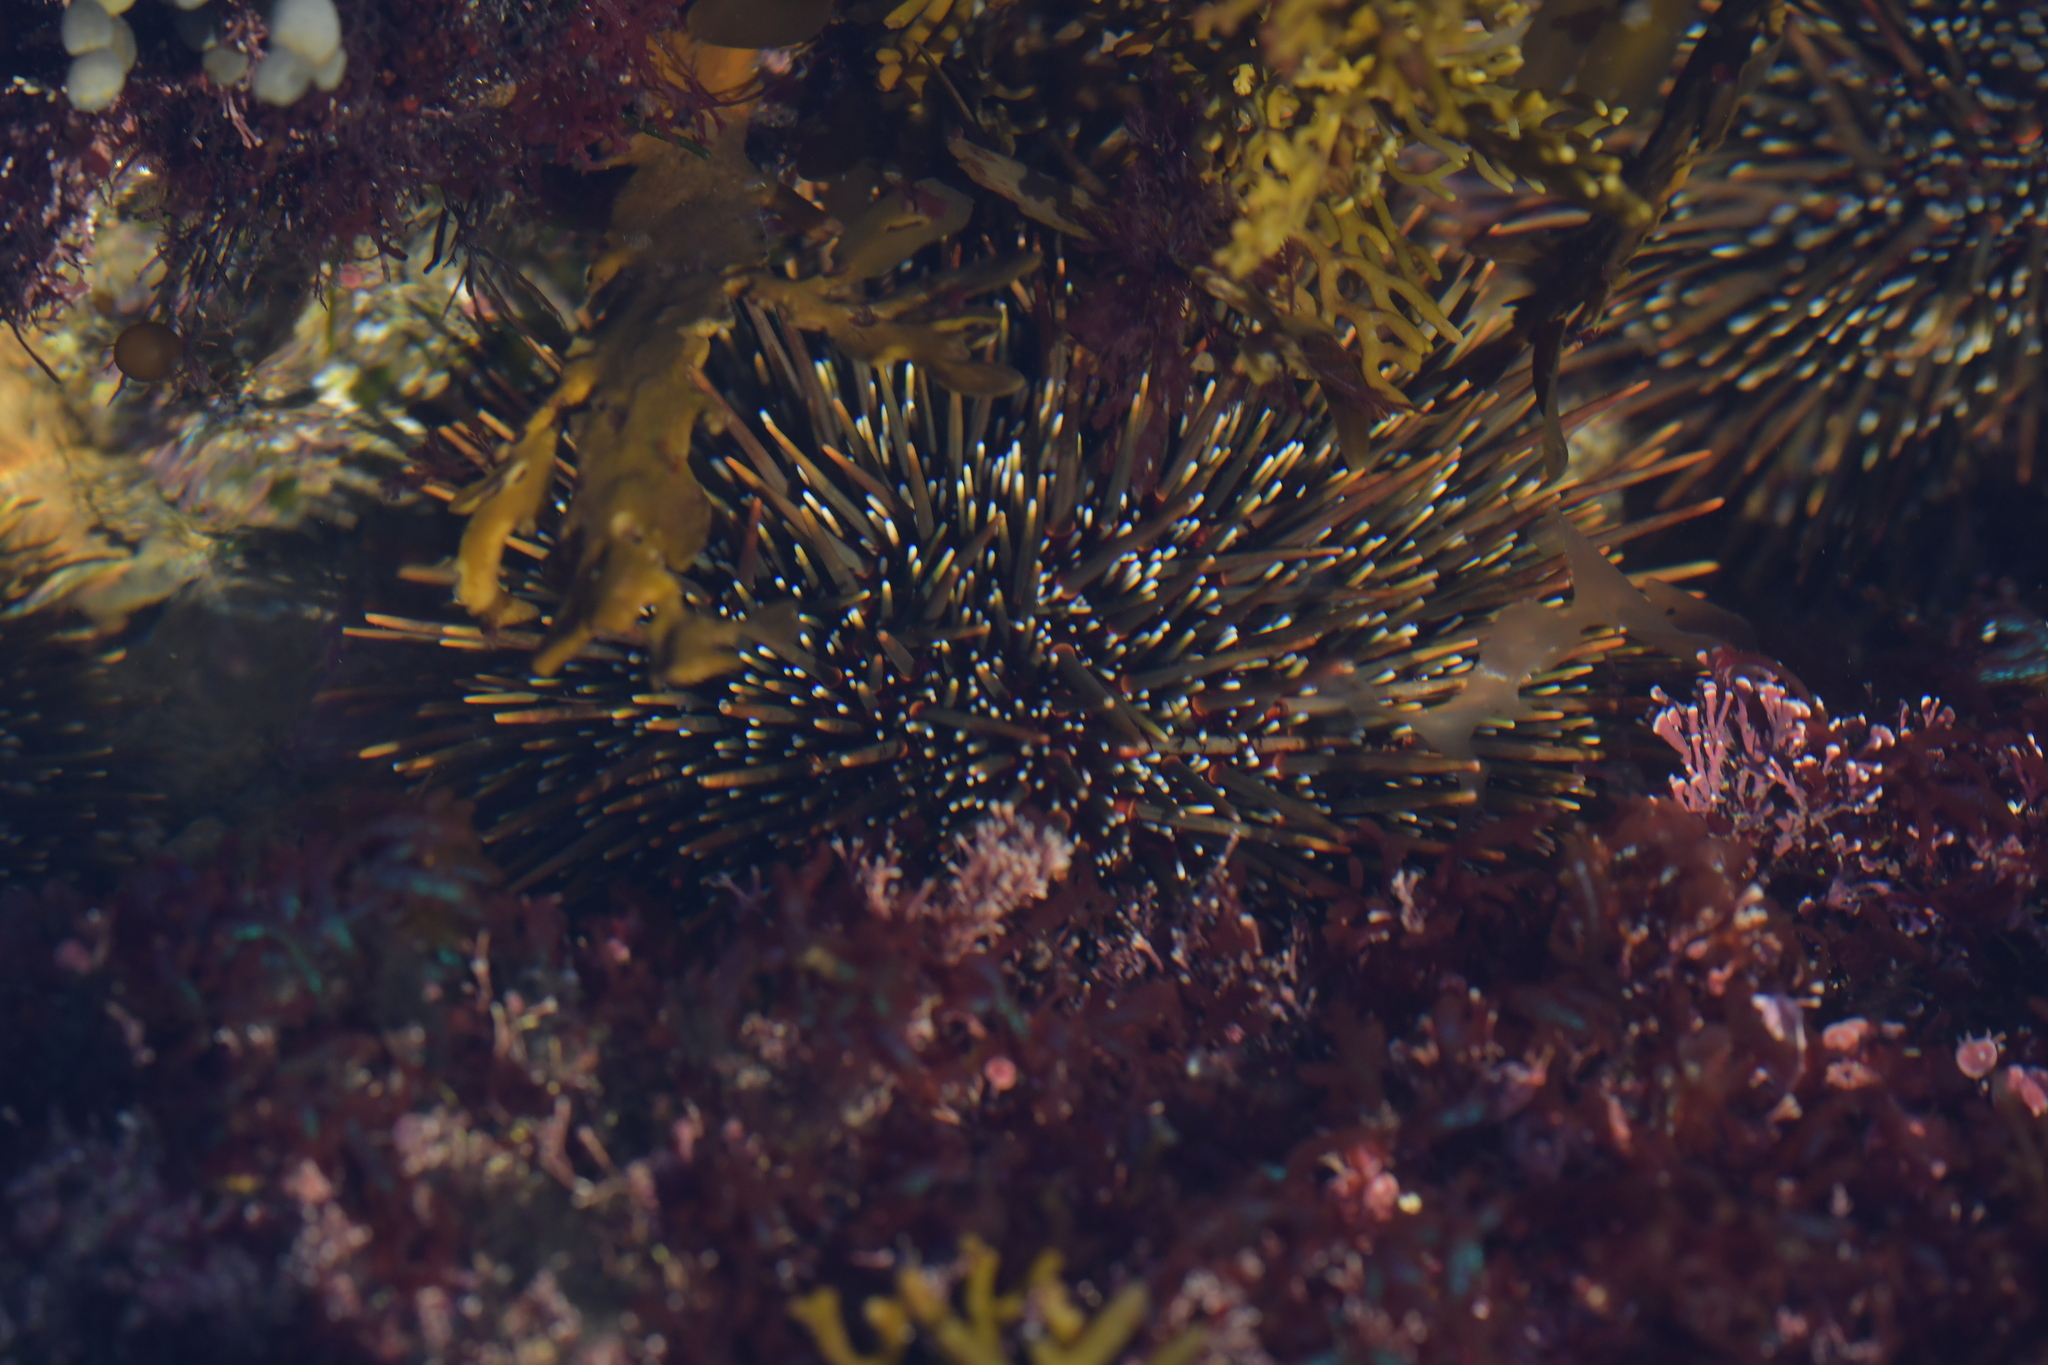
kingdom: Animalia
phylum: Echinodermata
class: Echinoidea
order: Camarodonta
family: Echinometridae
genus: Evechinus
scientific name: Evechinus chloroticus
